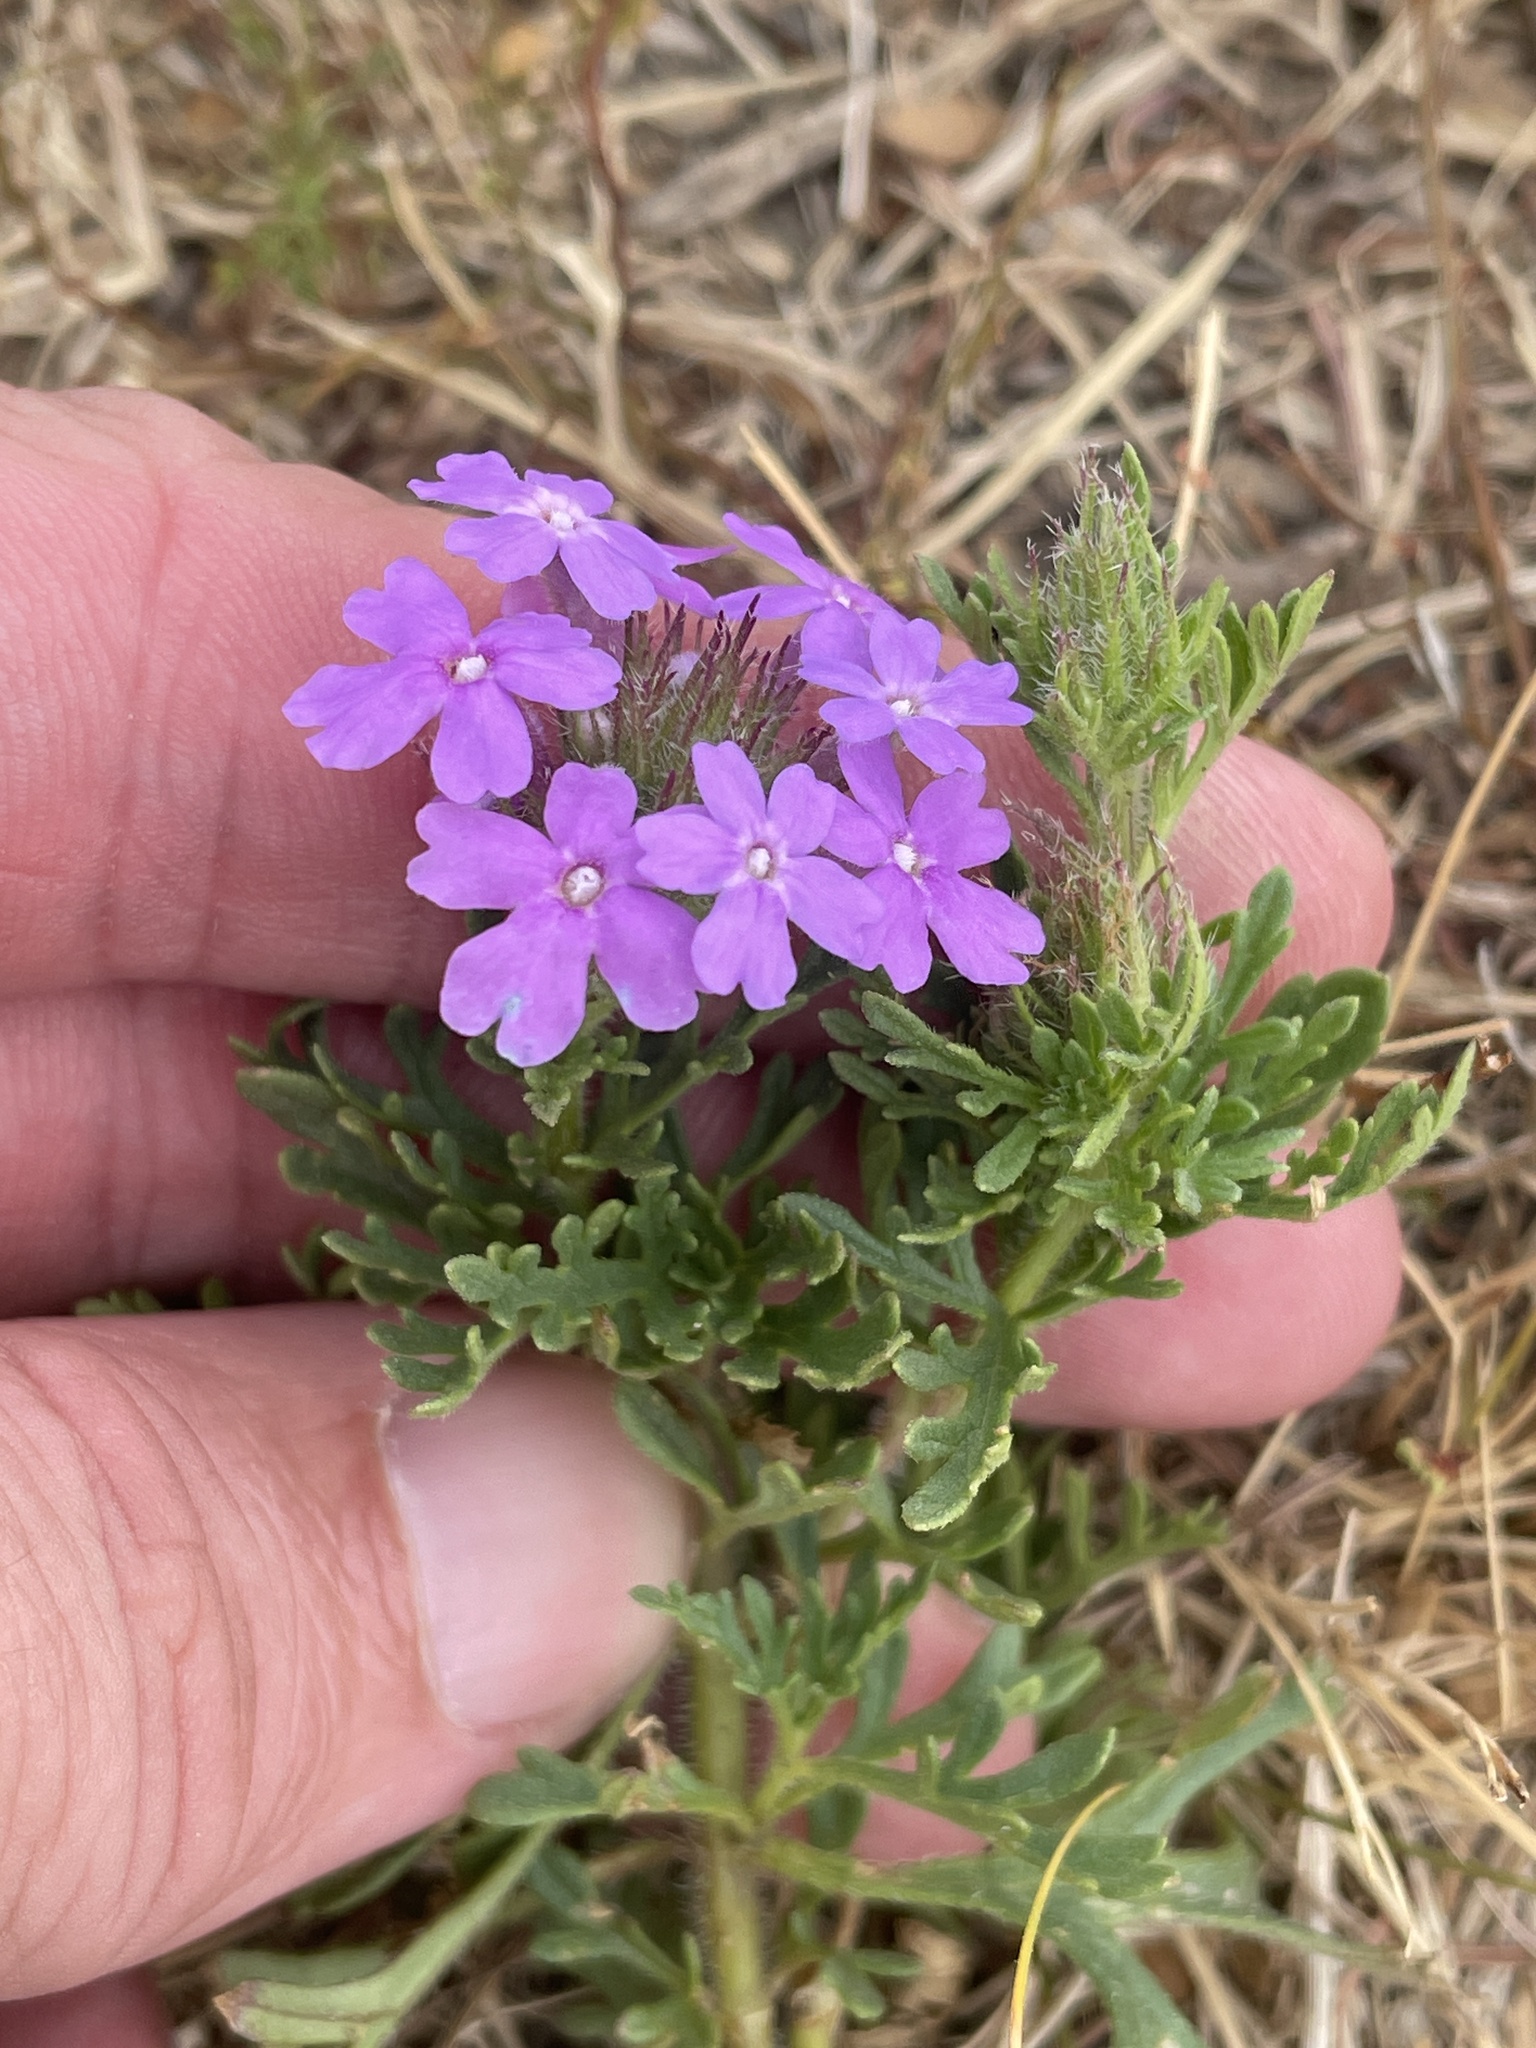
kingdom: Plantae
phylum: Tracheophyta
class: Magnoliopsida
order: Lamiales
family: Verbenaceae
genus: Verbena
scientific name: Verbena bipinnatifida
